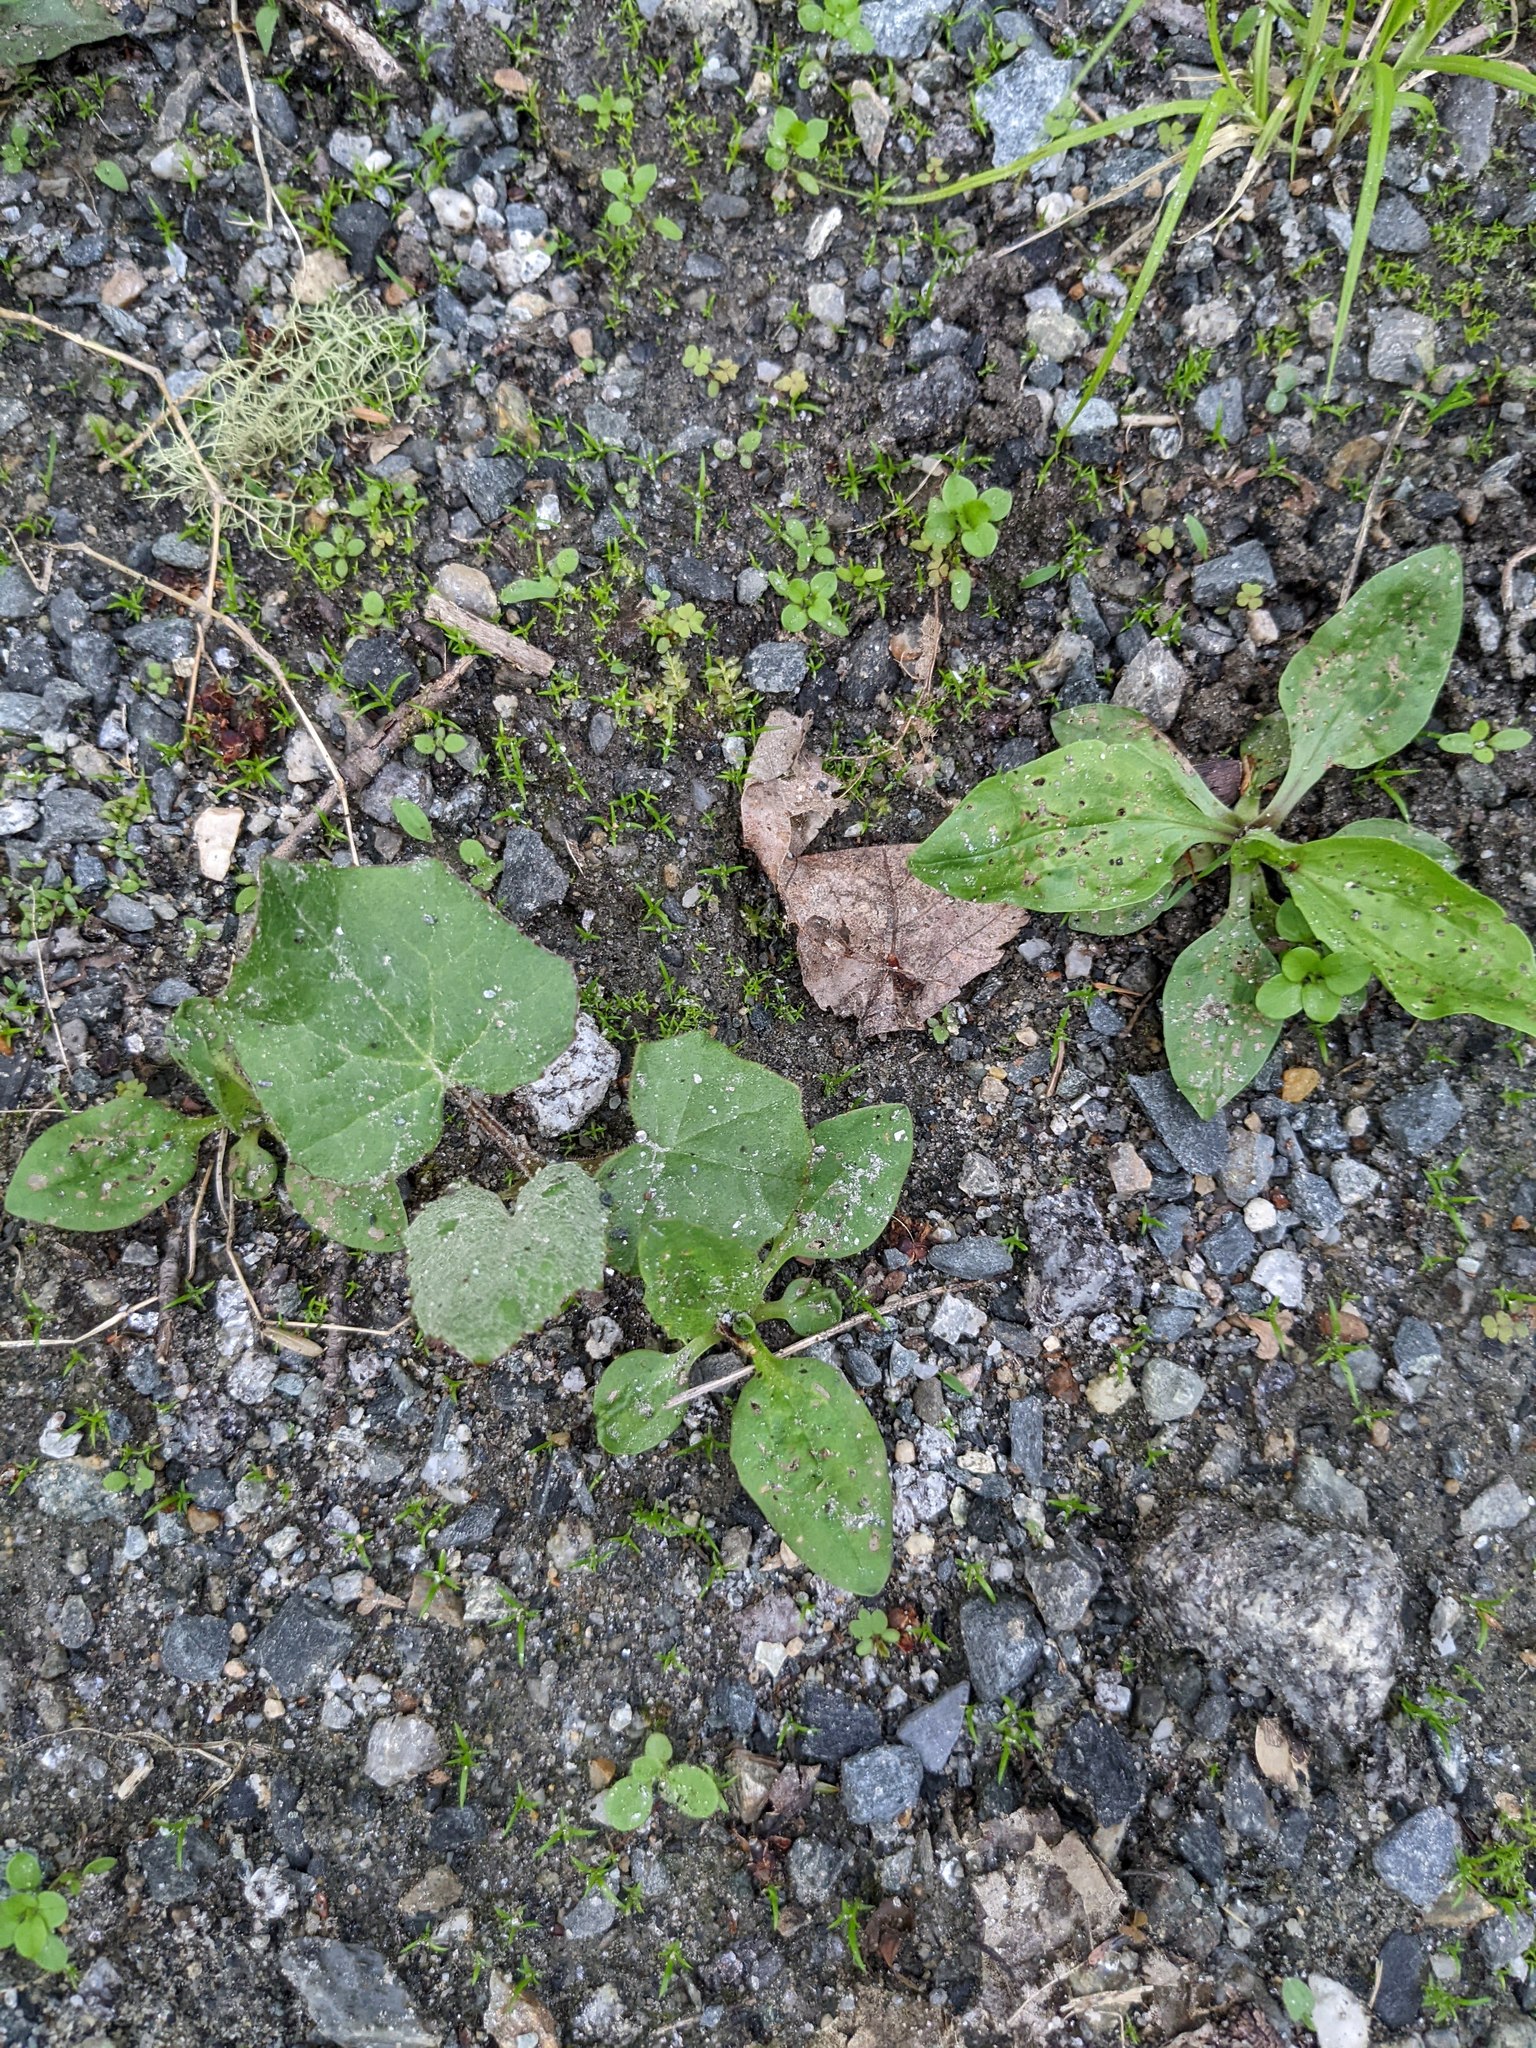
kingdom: Plantae
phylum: Tracheophyta
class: Magnoliopsida
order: Asterales
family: Asteraceae
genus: Tussilago
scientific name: Tussilago farfara
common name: Coltsfoot
